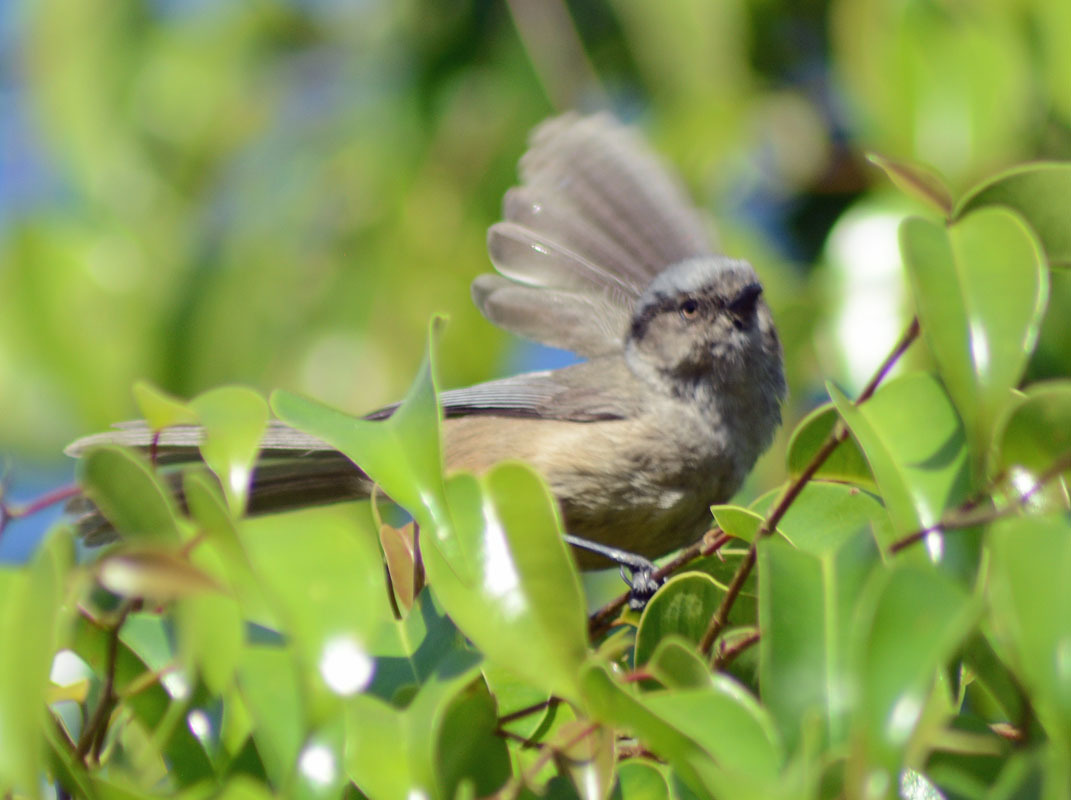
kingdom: Animalia
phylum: Chordata
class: Aves
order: Passeriformes
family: Aegithalidae
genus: Psaltriparus
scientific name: Psaltriparus minimus
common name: American bushtit
